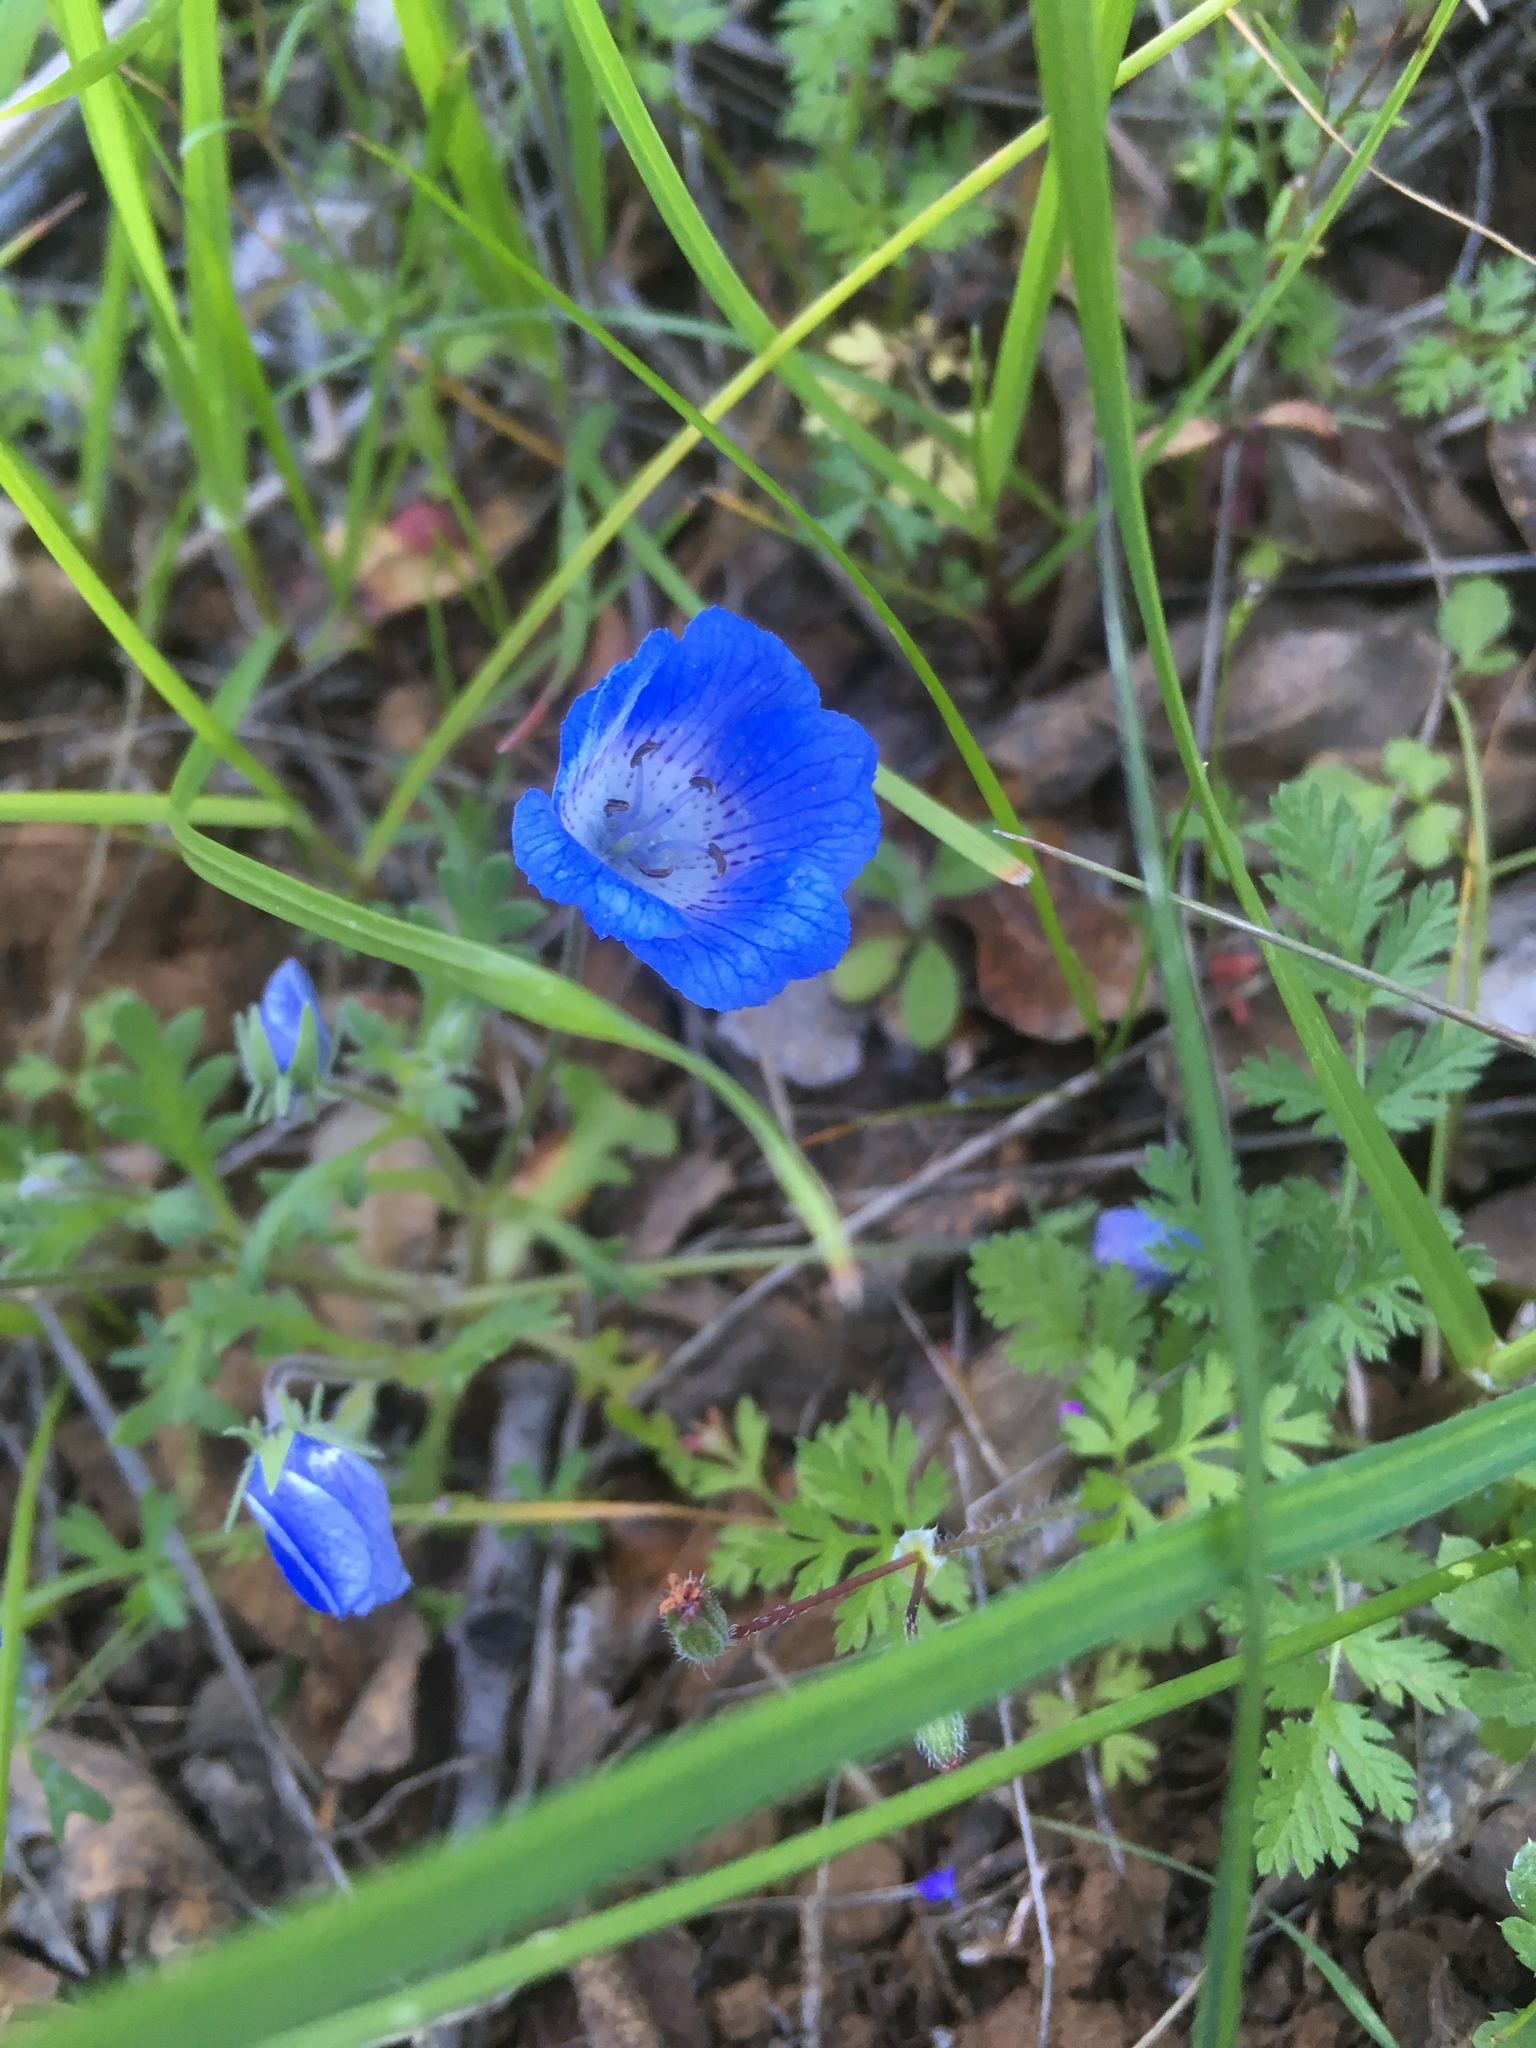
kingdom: Plantae
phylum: Tracheophyta
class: Magnoliopsida
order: Boraginales
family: Hydrophyllaceae
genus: Nemophila
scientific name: Nemophila menziesii
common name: Baby's-blue-eyes
